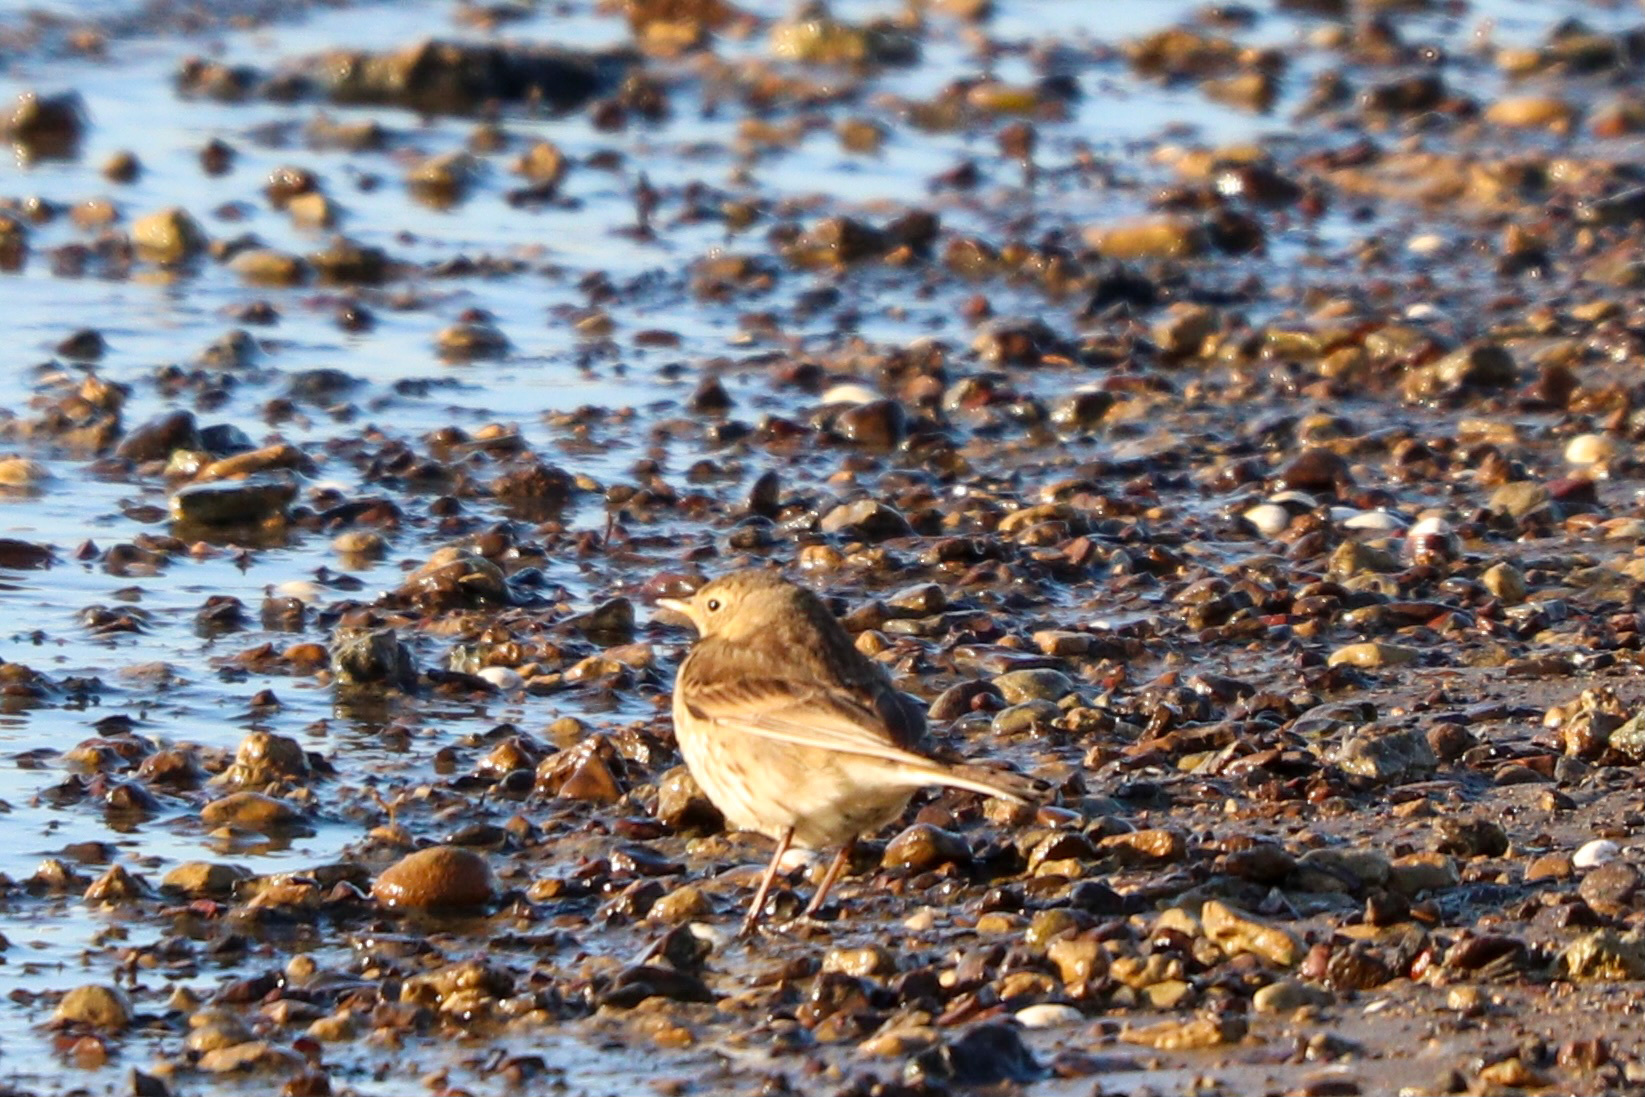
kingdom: Animalia
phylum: Chordata
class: Aves
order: Passeriformes
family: Motacillidae
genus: Anthus
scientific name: Anthus rubescens
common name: Buff-bellied pipit
